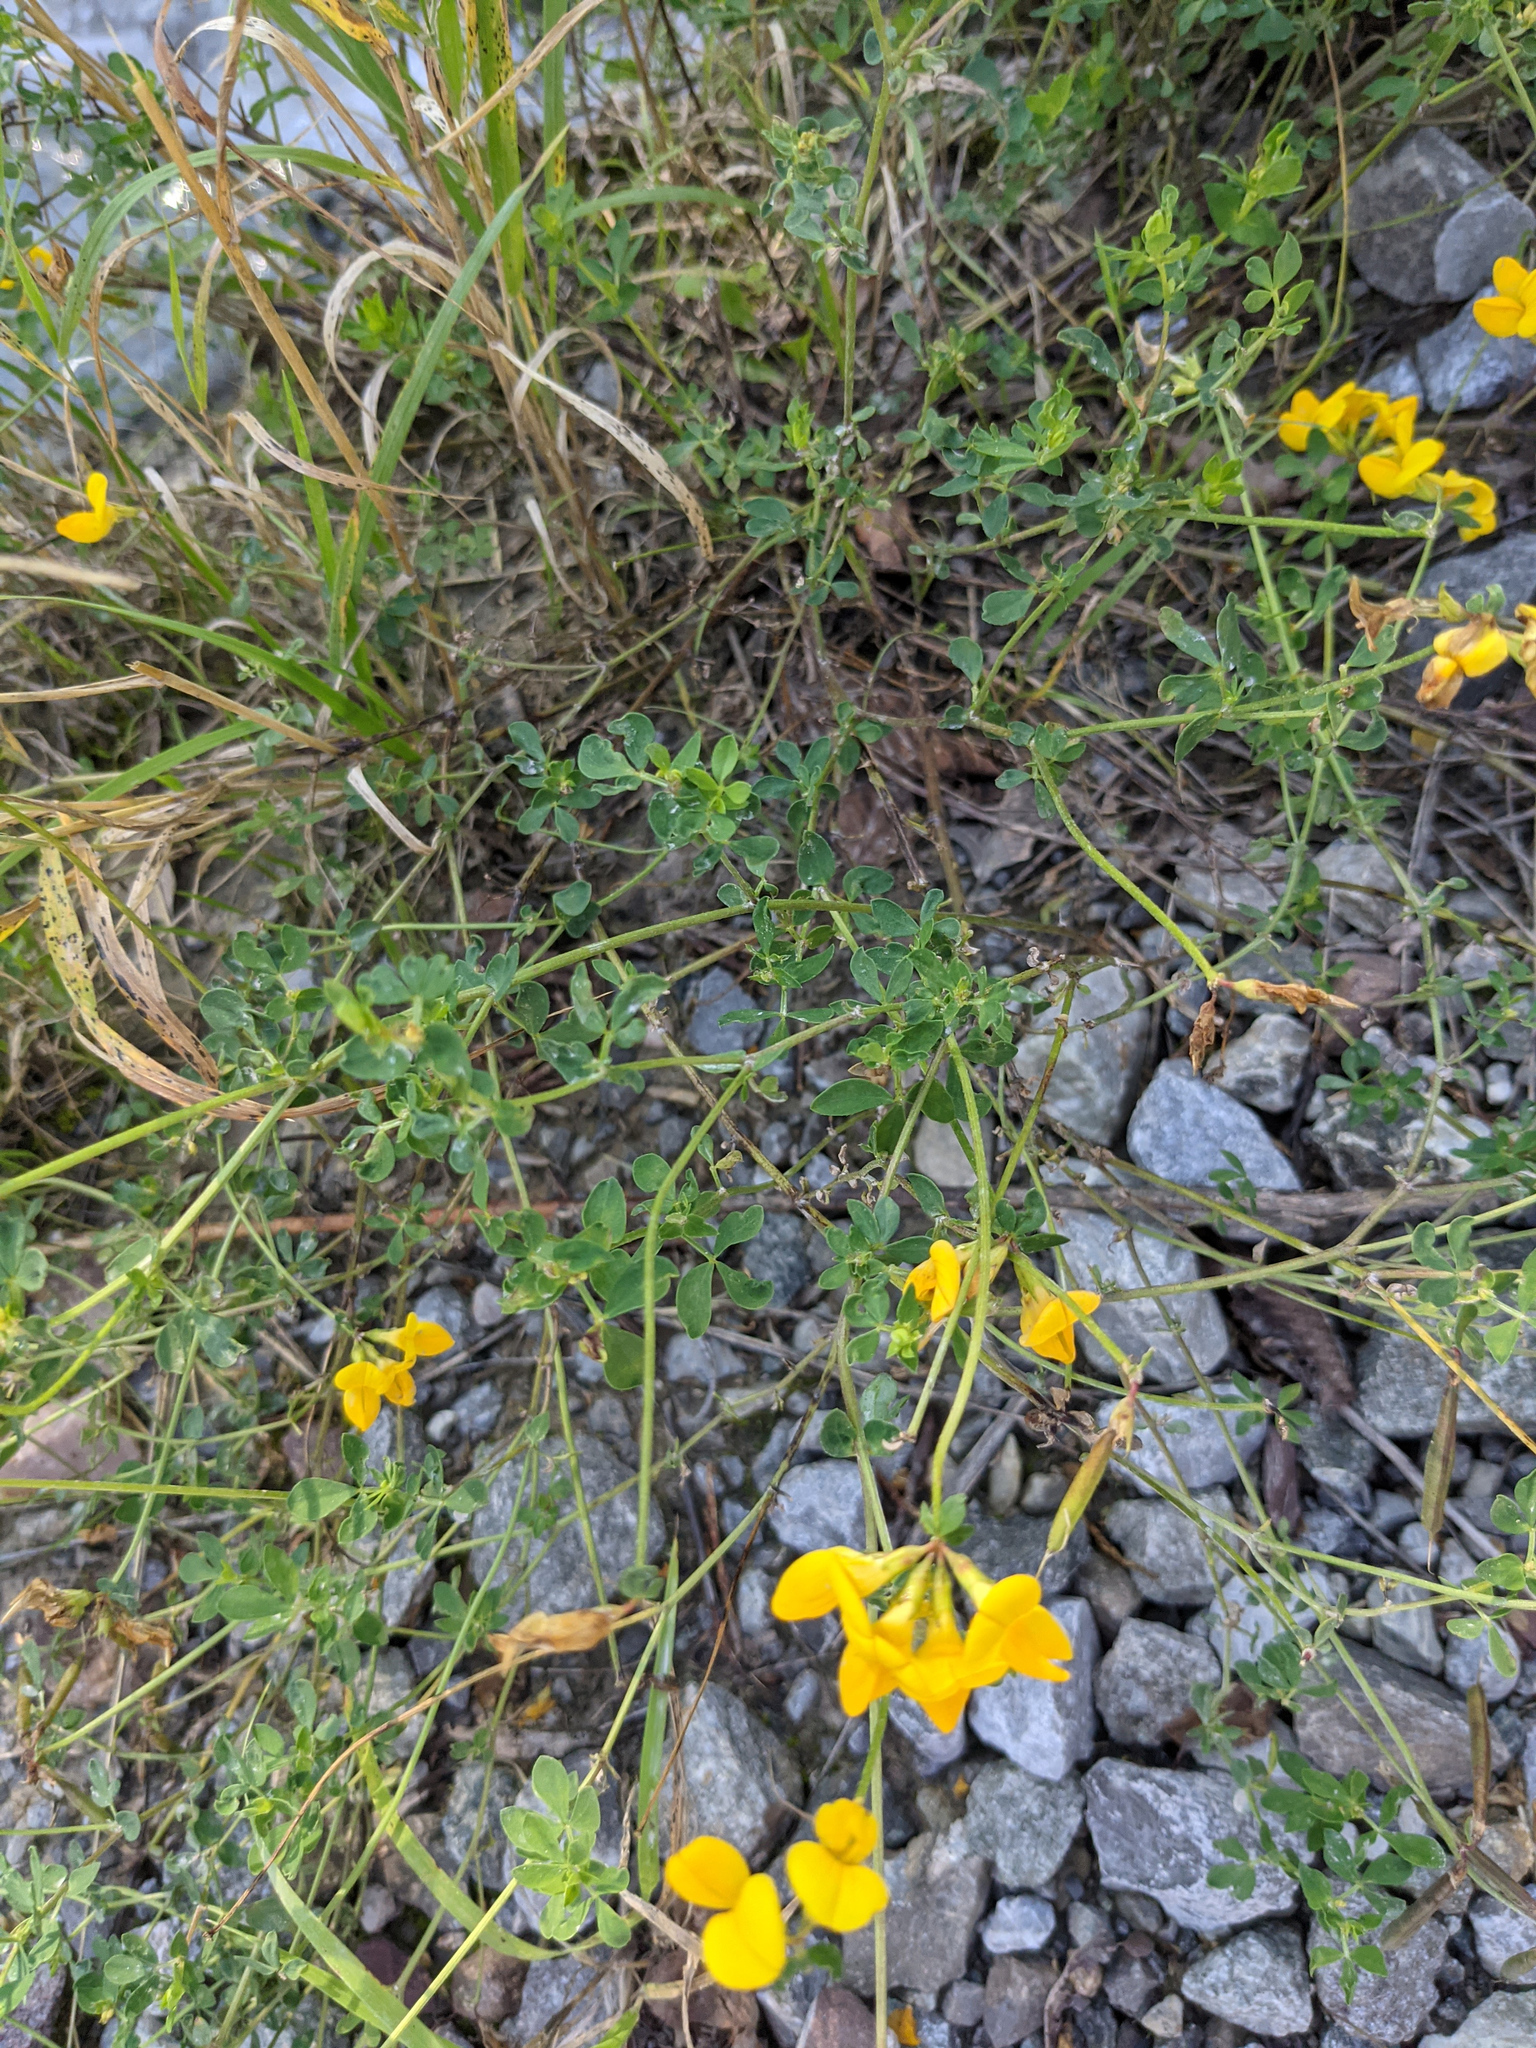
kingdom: Plantae
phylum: Tracheophyta
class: Magnoliopsida
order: Fabales
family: Fabaceae
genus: Lotus
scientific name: Lotus corniculatus
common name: Common bird's-foot-trefoil
